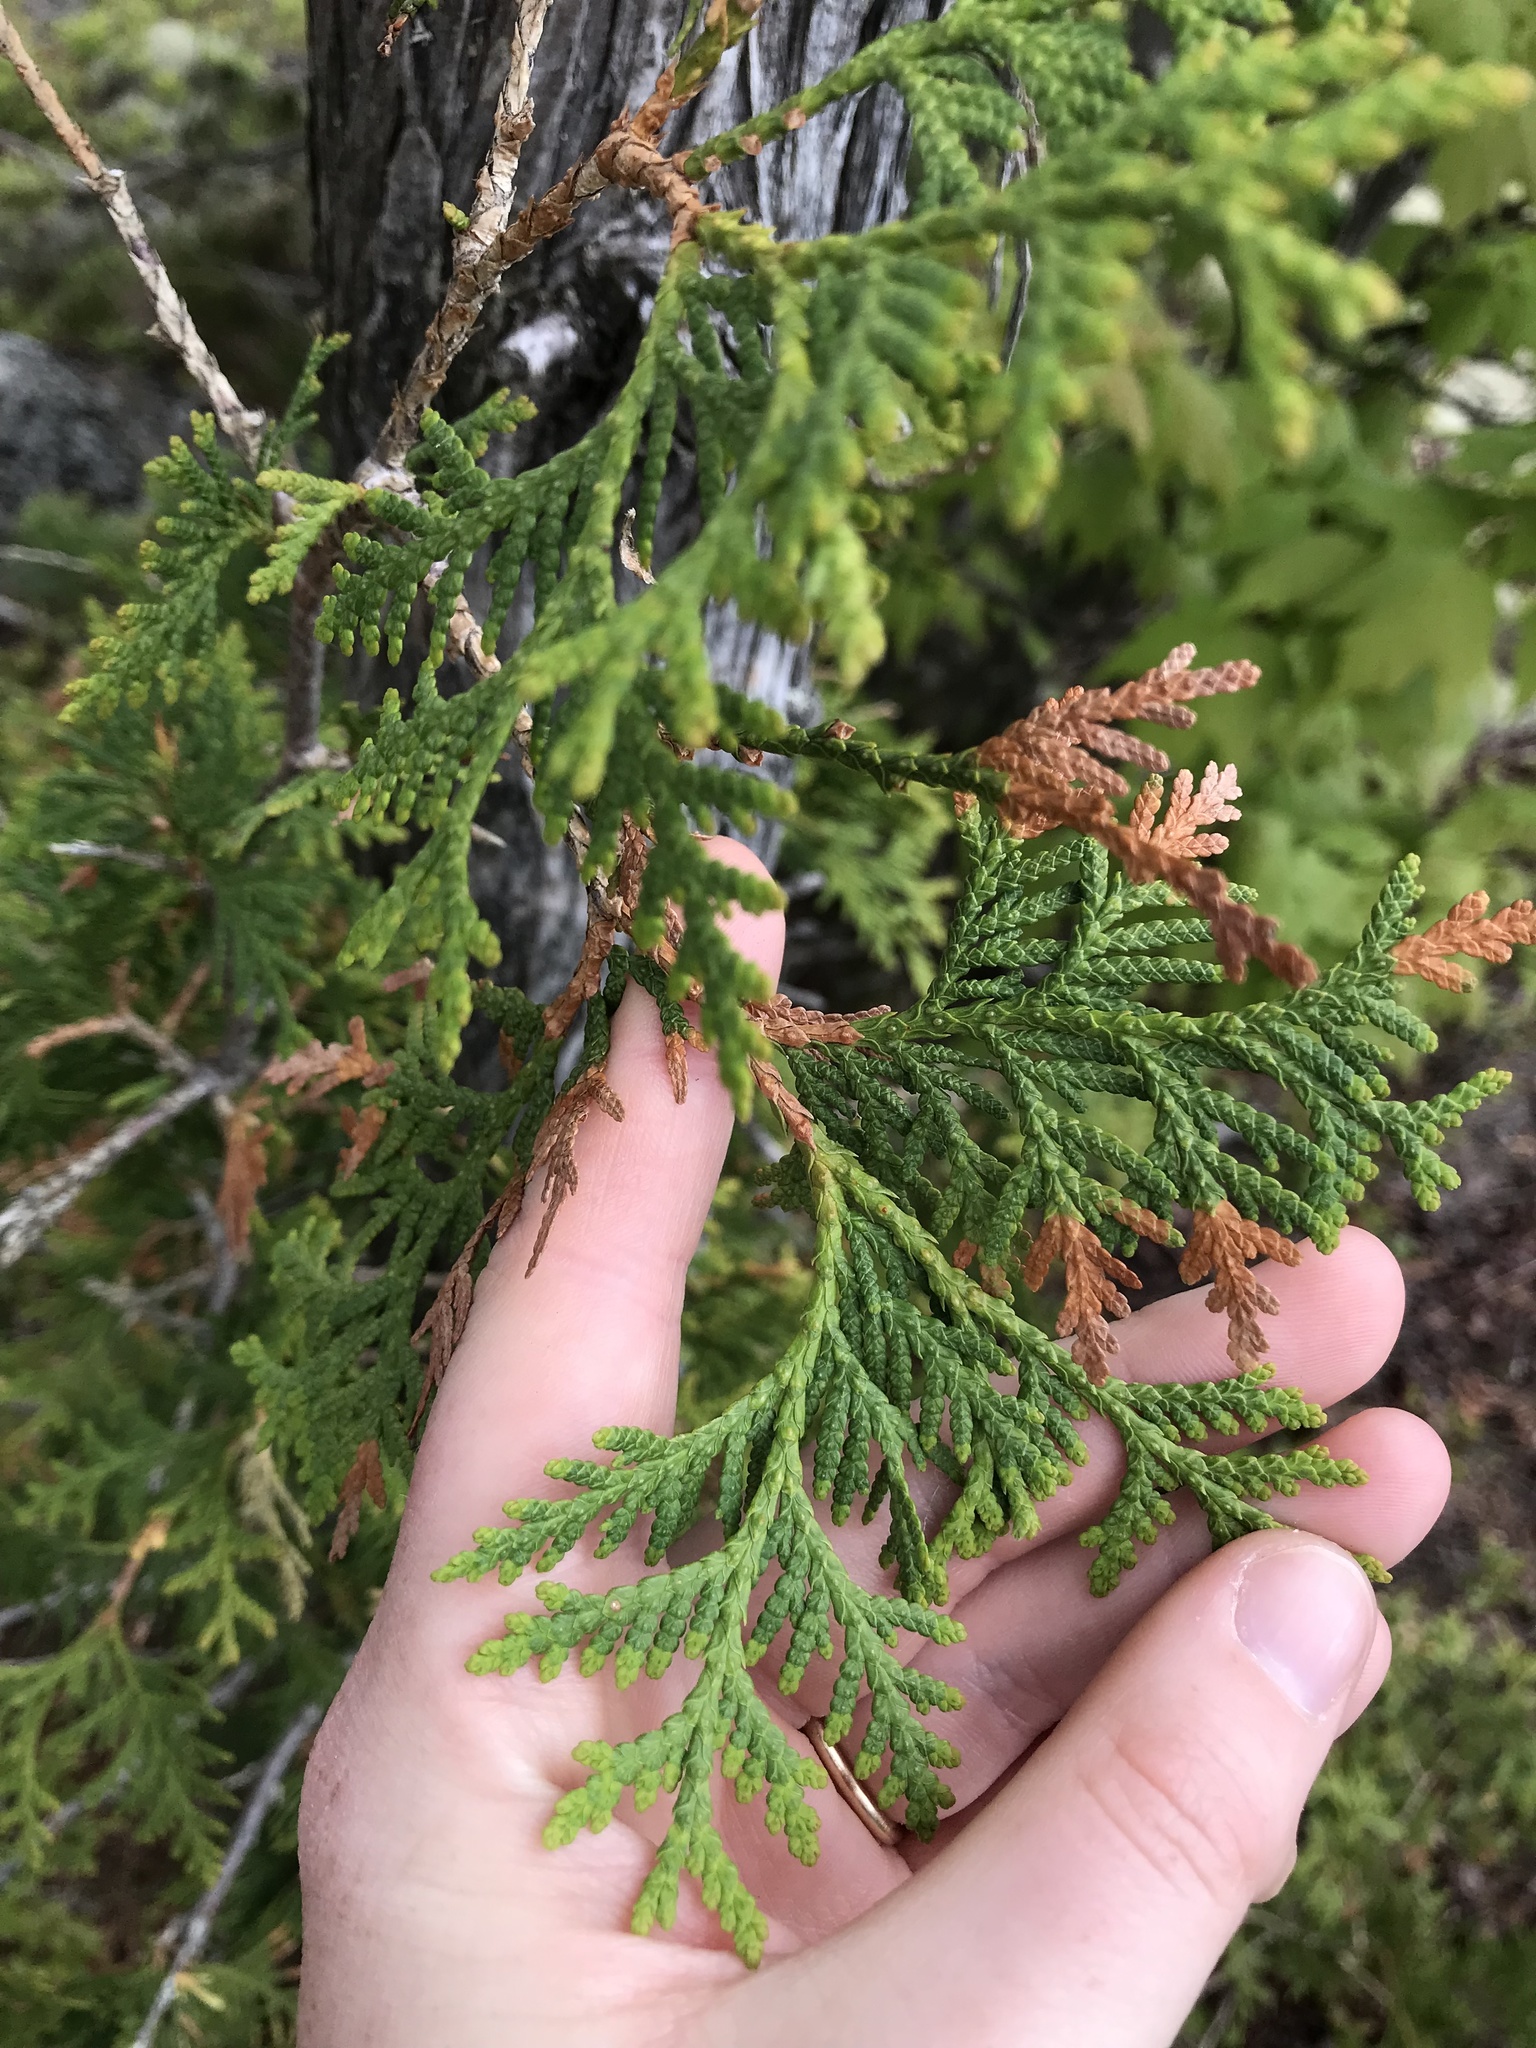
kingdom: Plantae
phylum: Tracheophyta
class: Pinopsida
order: Pinales
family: Cupressaceae
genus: Thuja
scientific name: Thuja occidentalis
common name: Northern white-cedar
